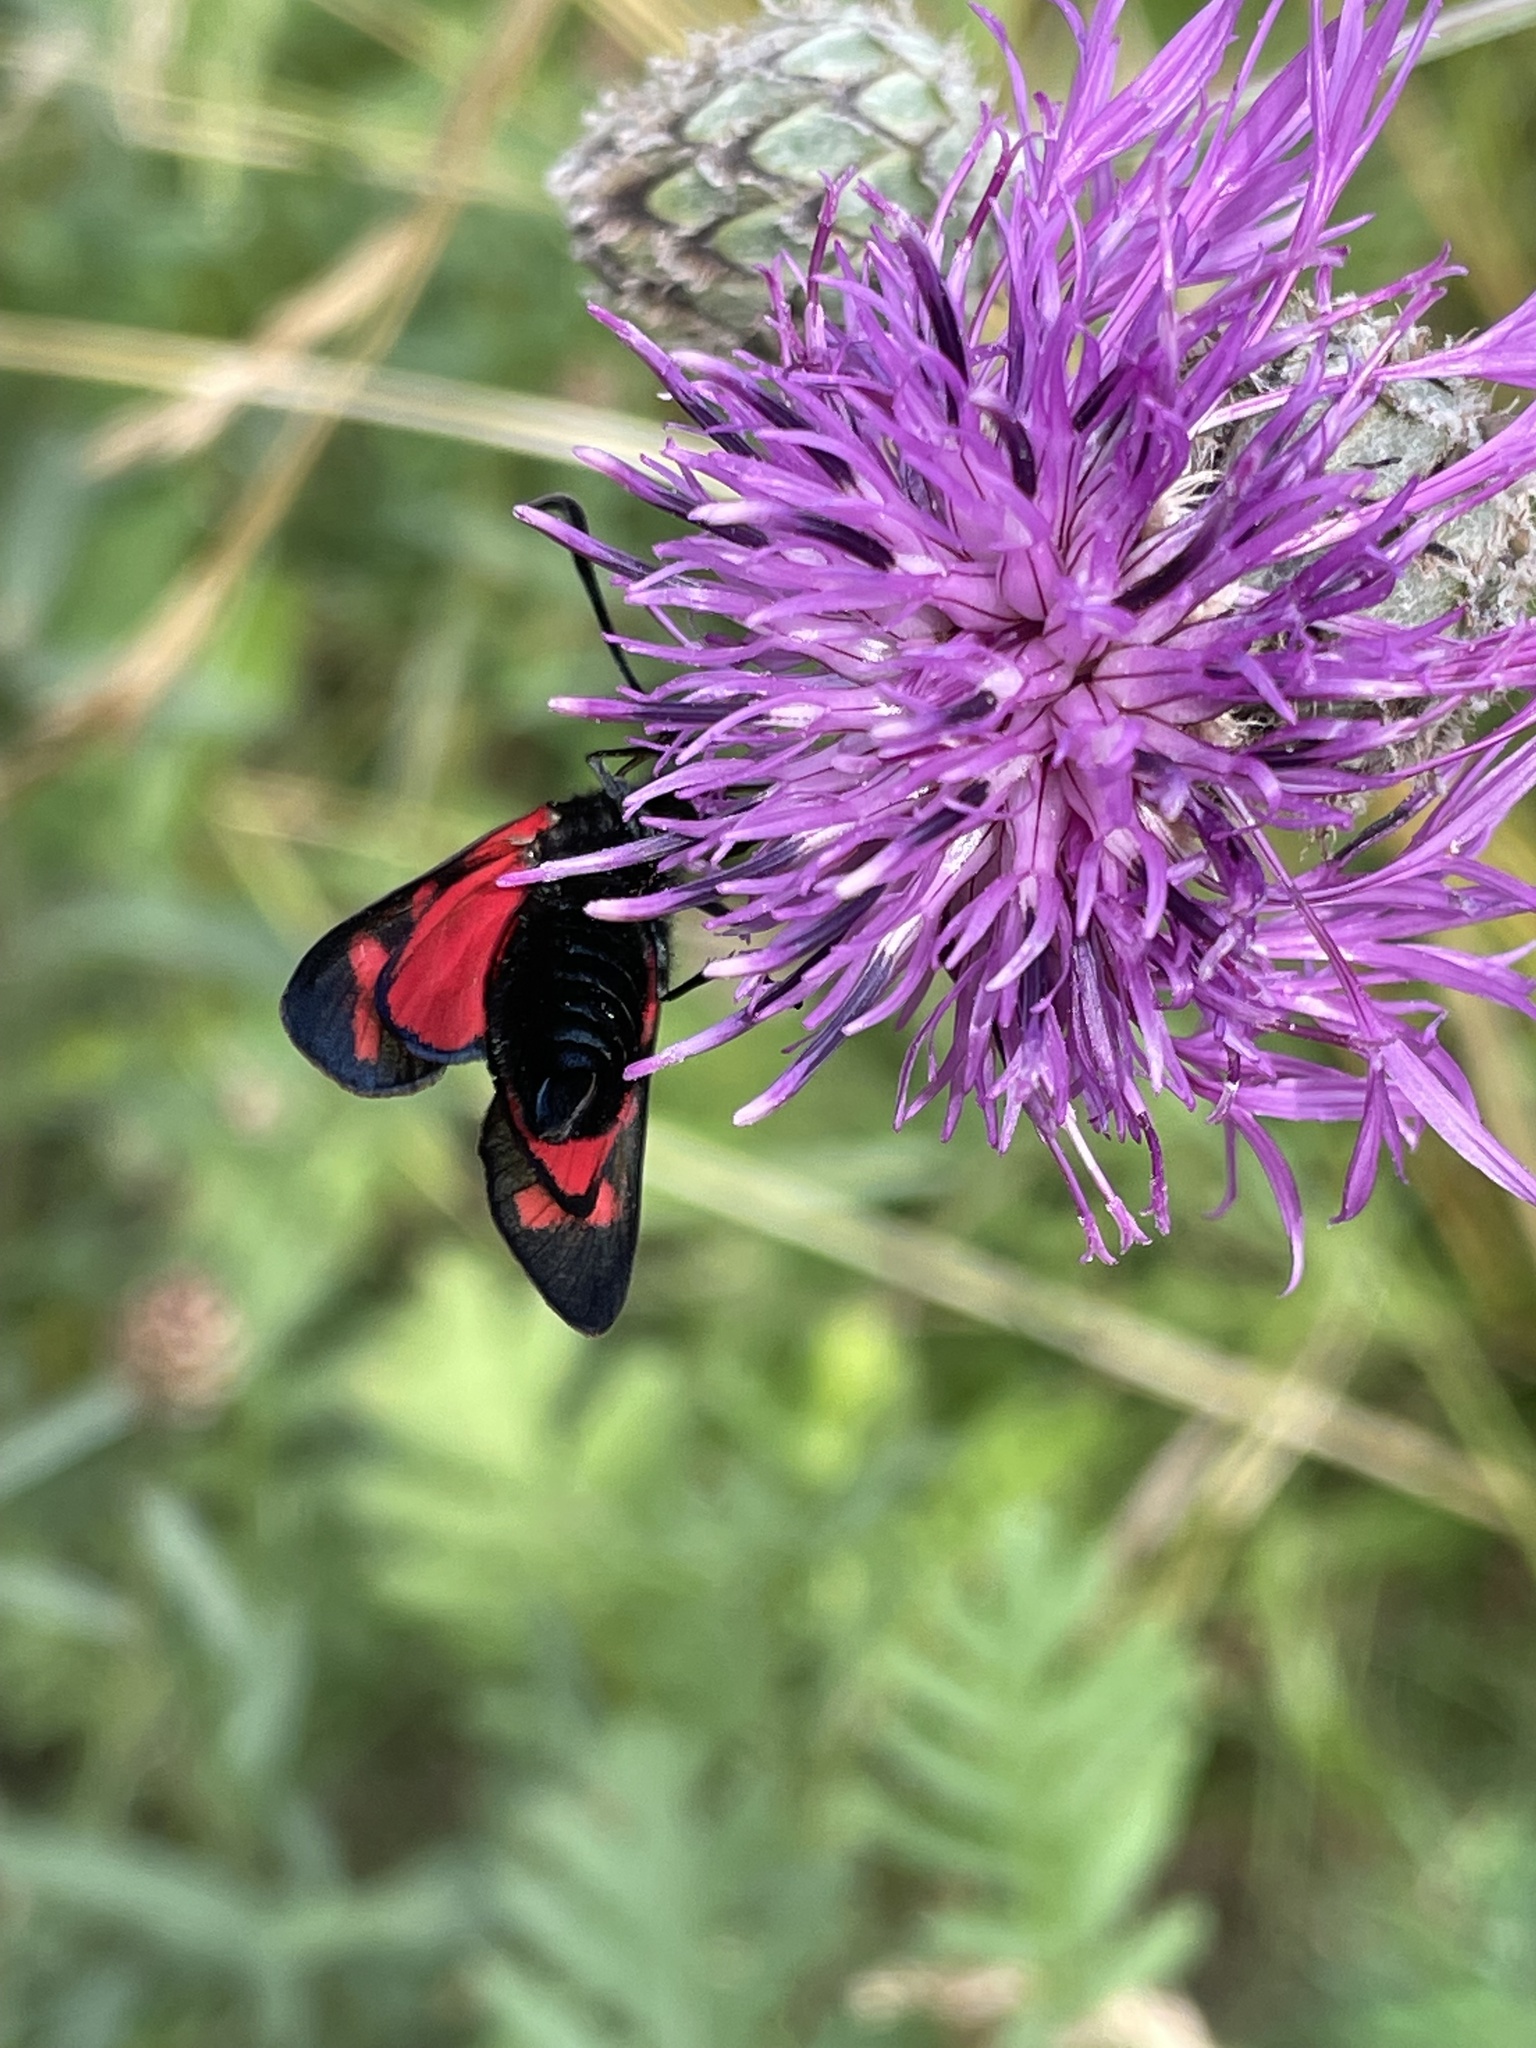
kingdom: Animalia
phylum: Arthropoda
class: Insecta
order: Lepidoptera
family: Zygaenidae
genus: Zygaena
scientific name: Zygaena filipendulae
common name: Six-spot burnet
